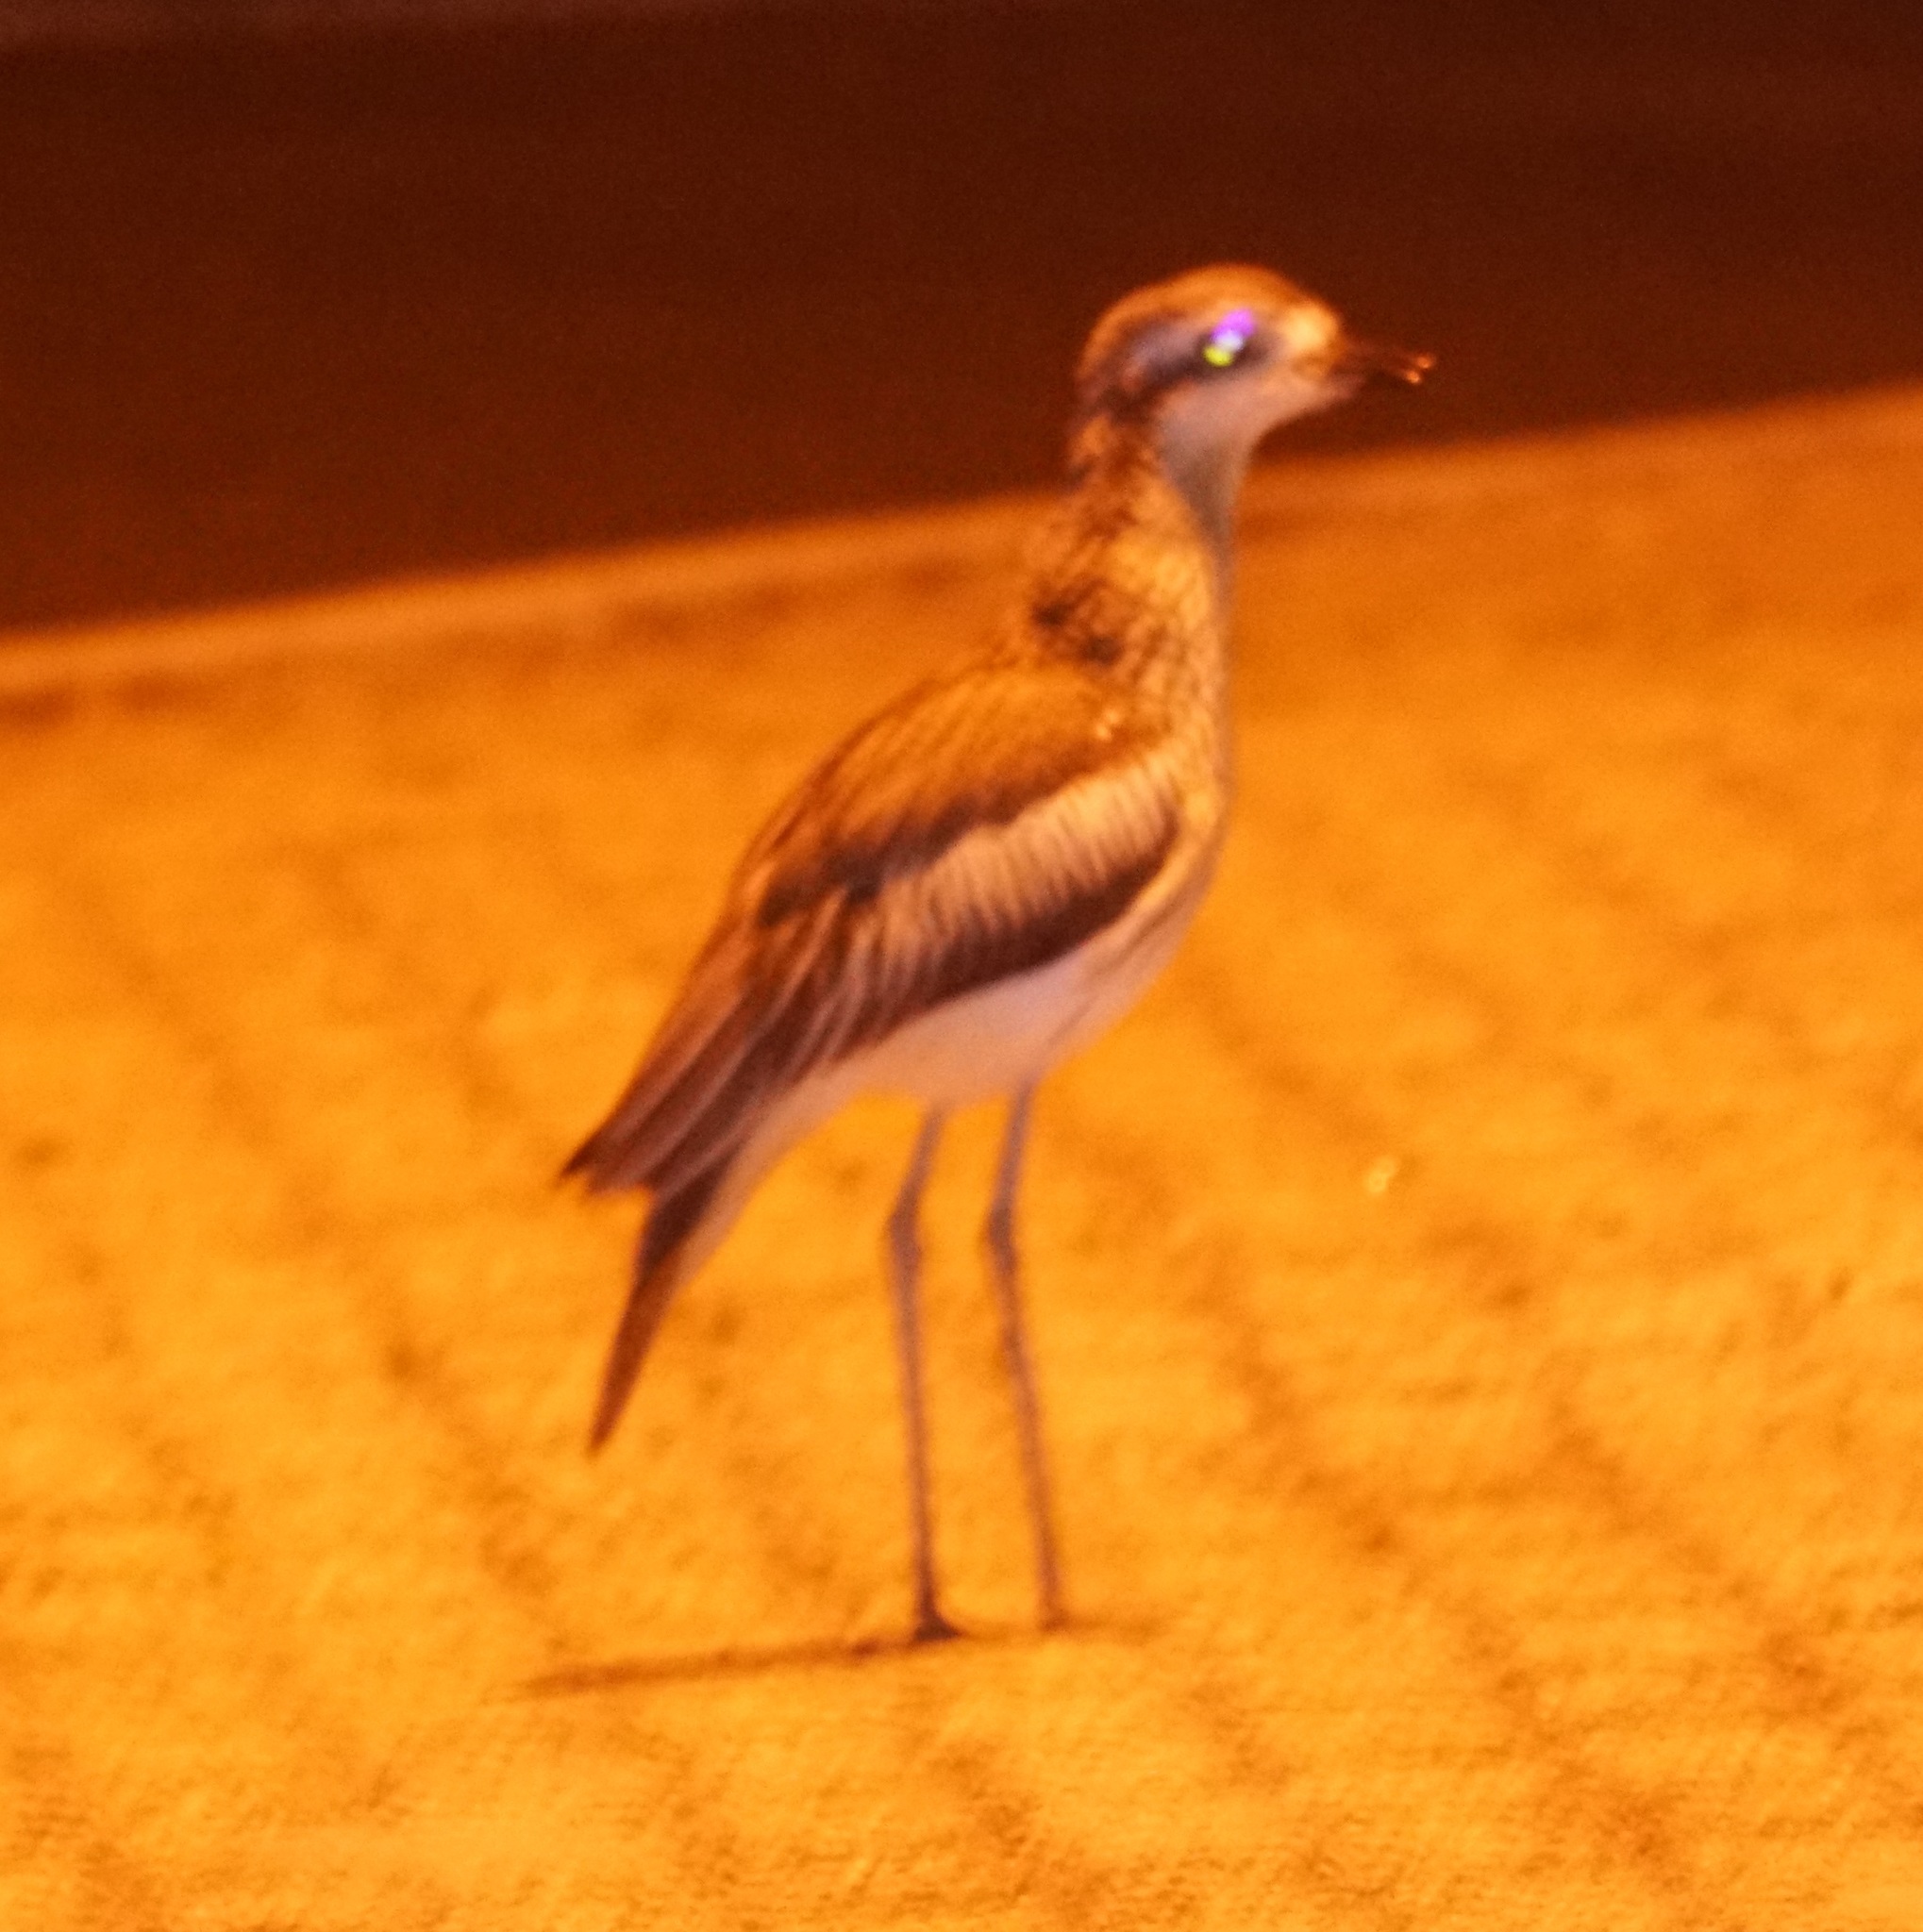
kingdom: Animalia
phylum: Chordata
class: Aves
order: Charadriiformes
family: Burhinidae
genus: Burhinus
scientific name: Burhinus grallarius
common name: Bush stone-curlew
